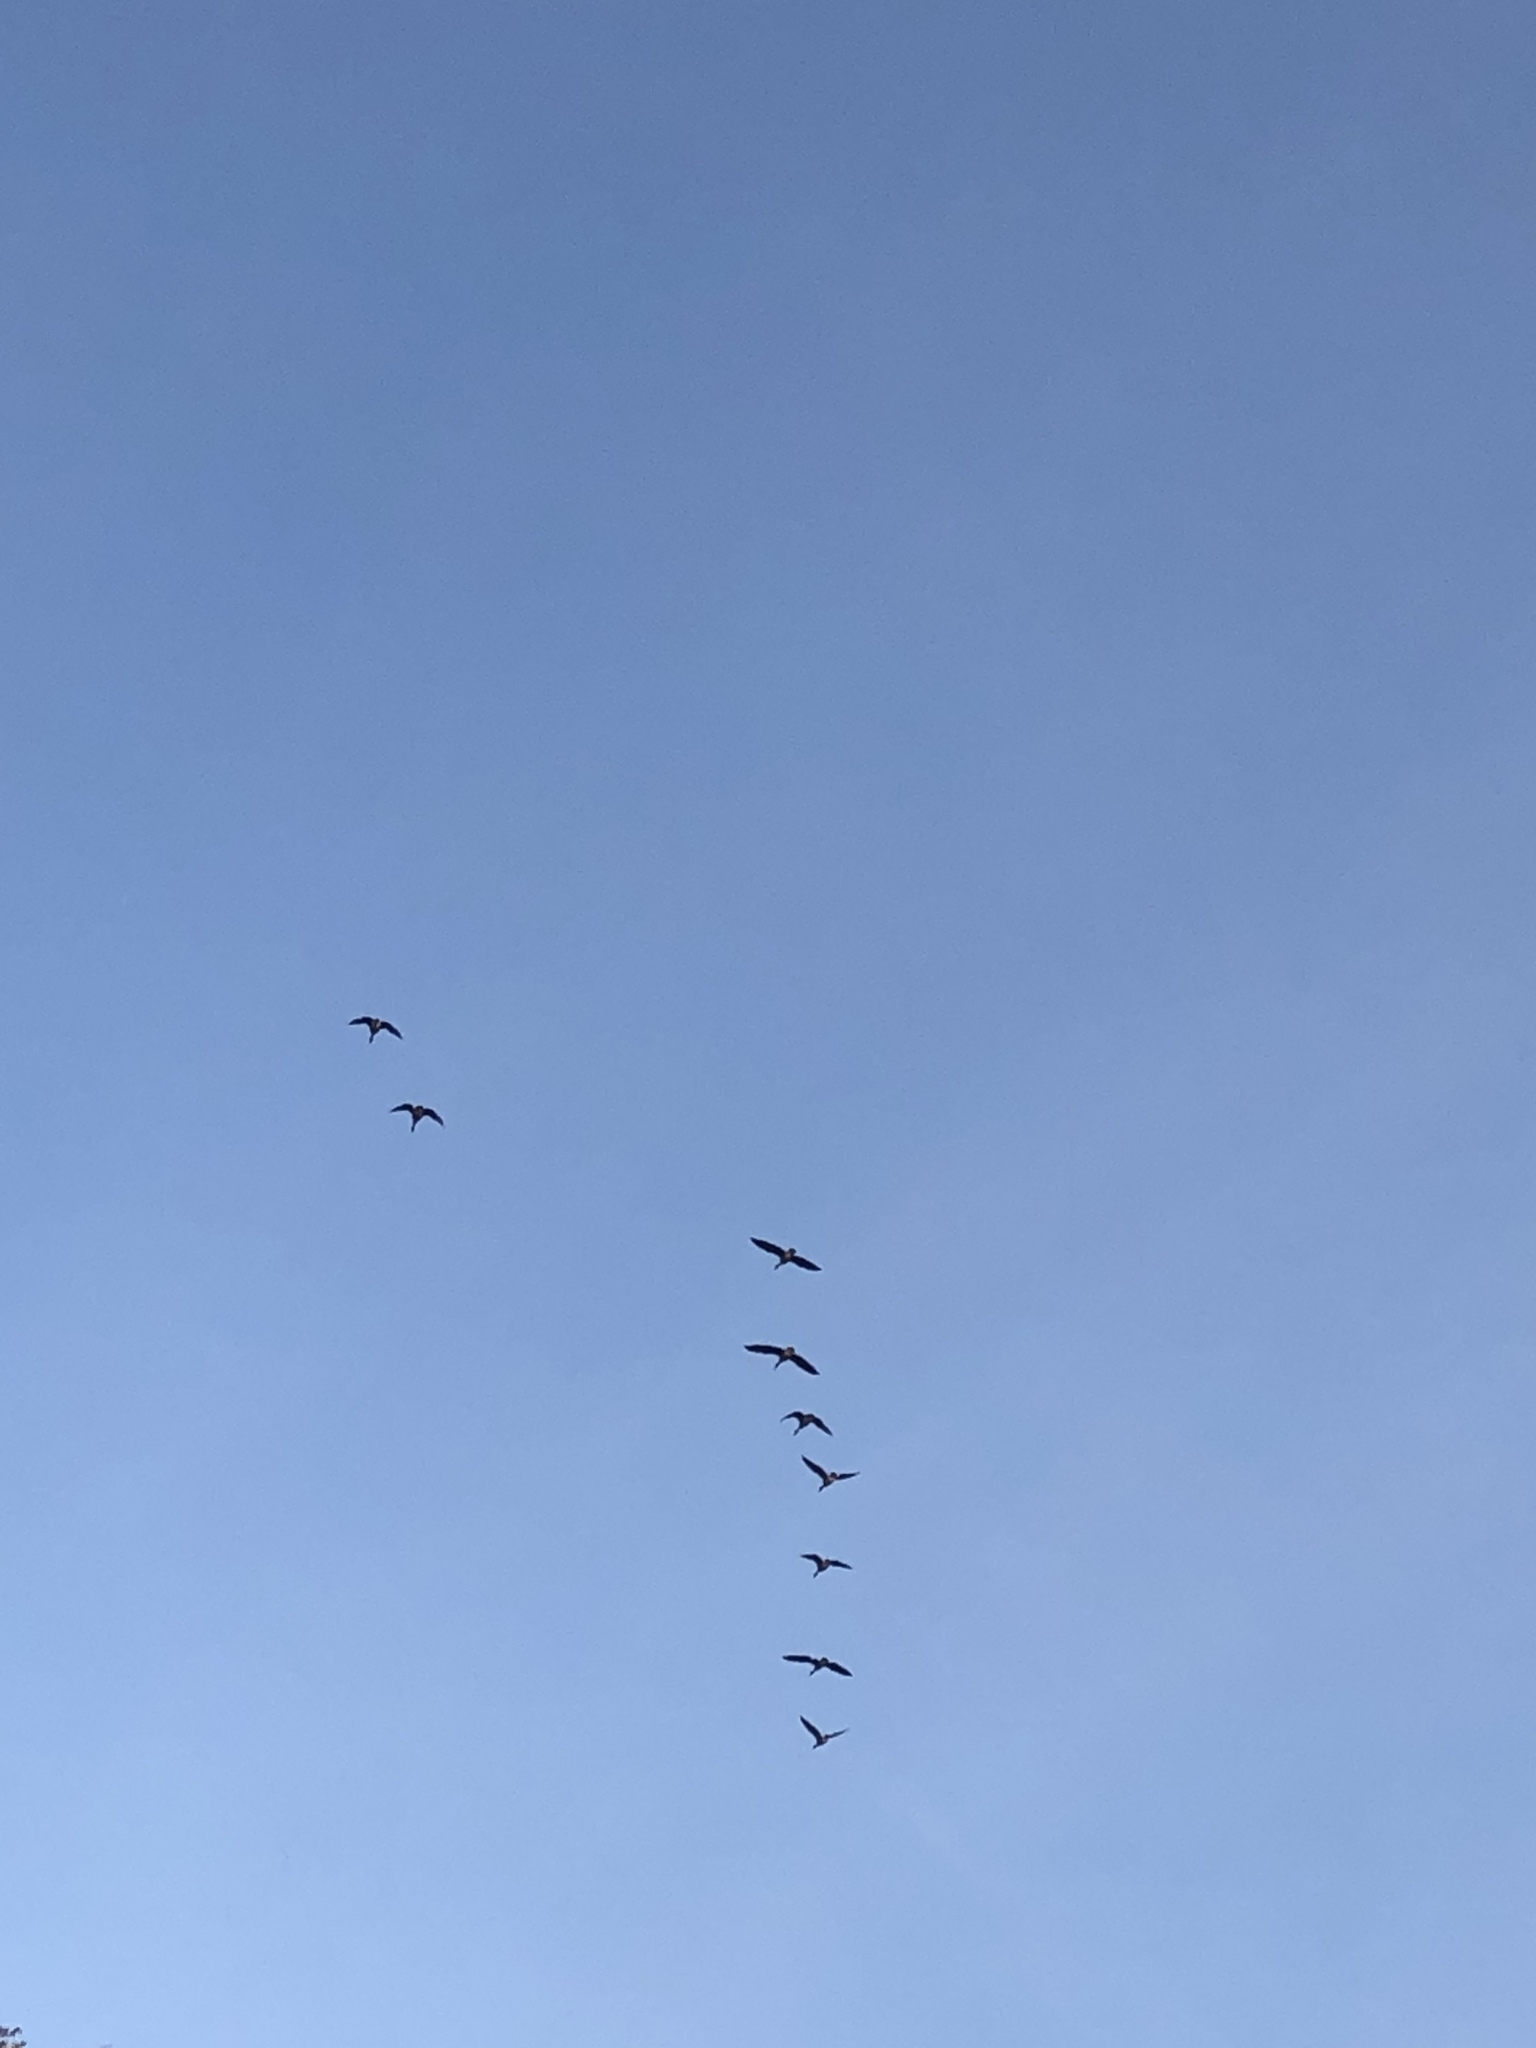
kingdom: Animalia
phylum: Chordata
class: Aves
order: Anseriformes
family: Anatidae
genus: Branta
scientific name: Branta canadensis
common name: Canada goose
